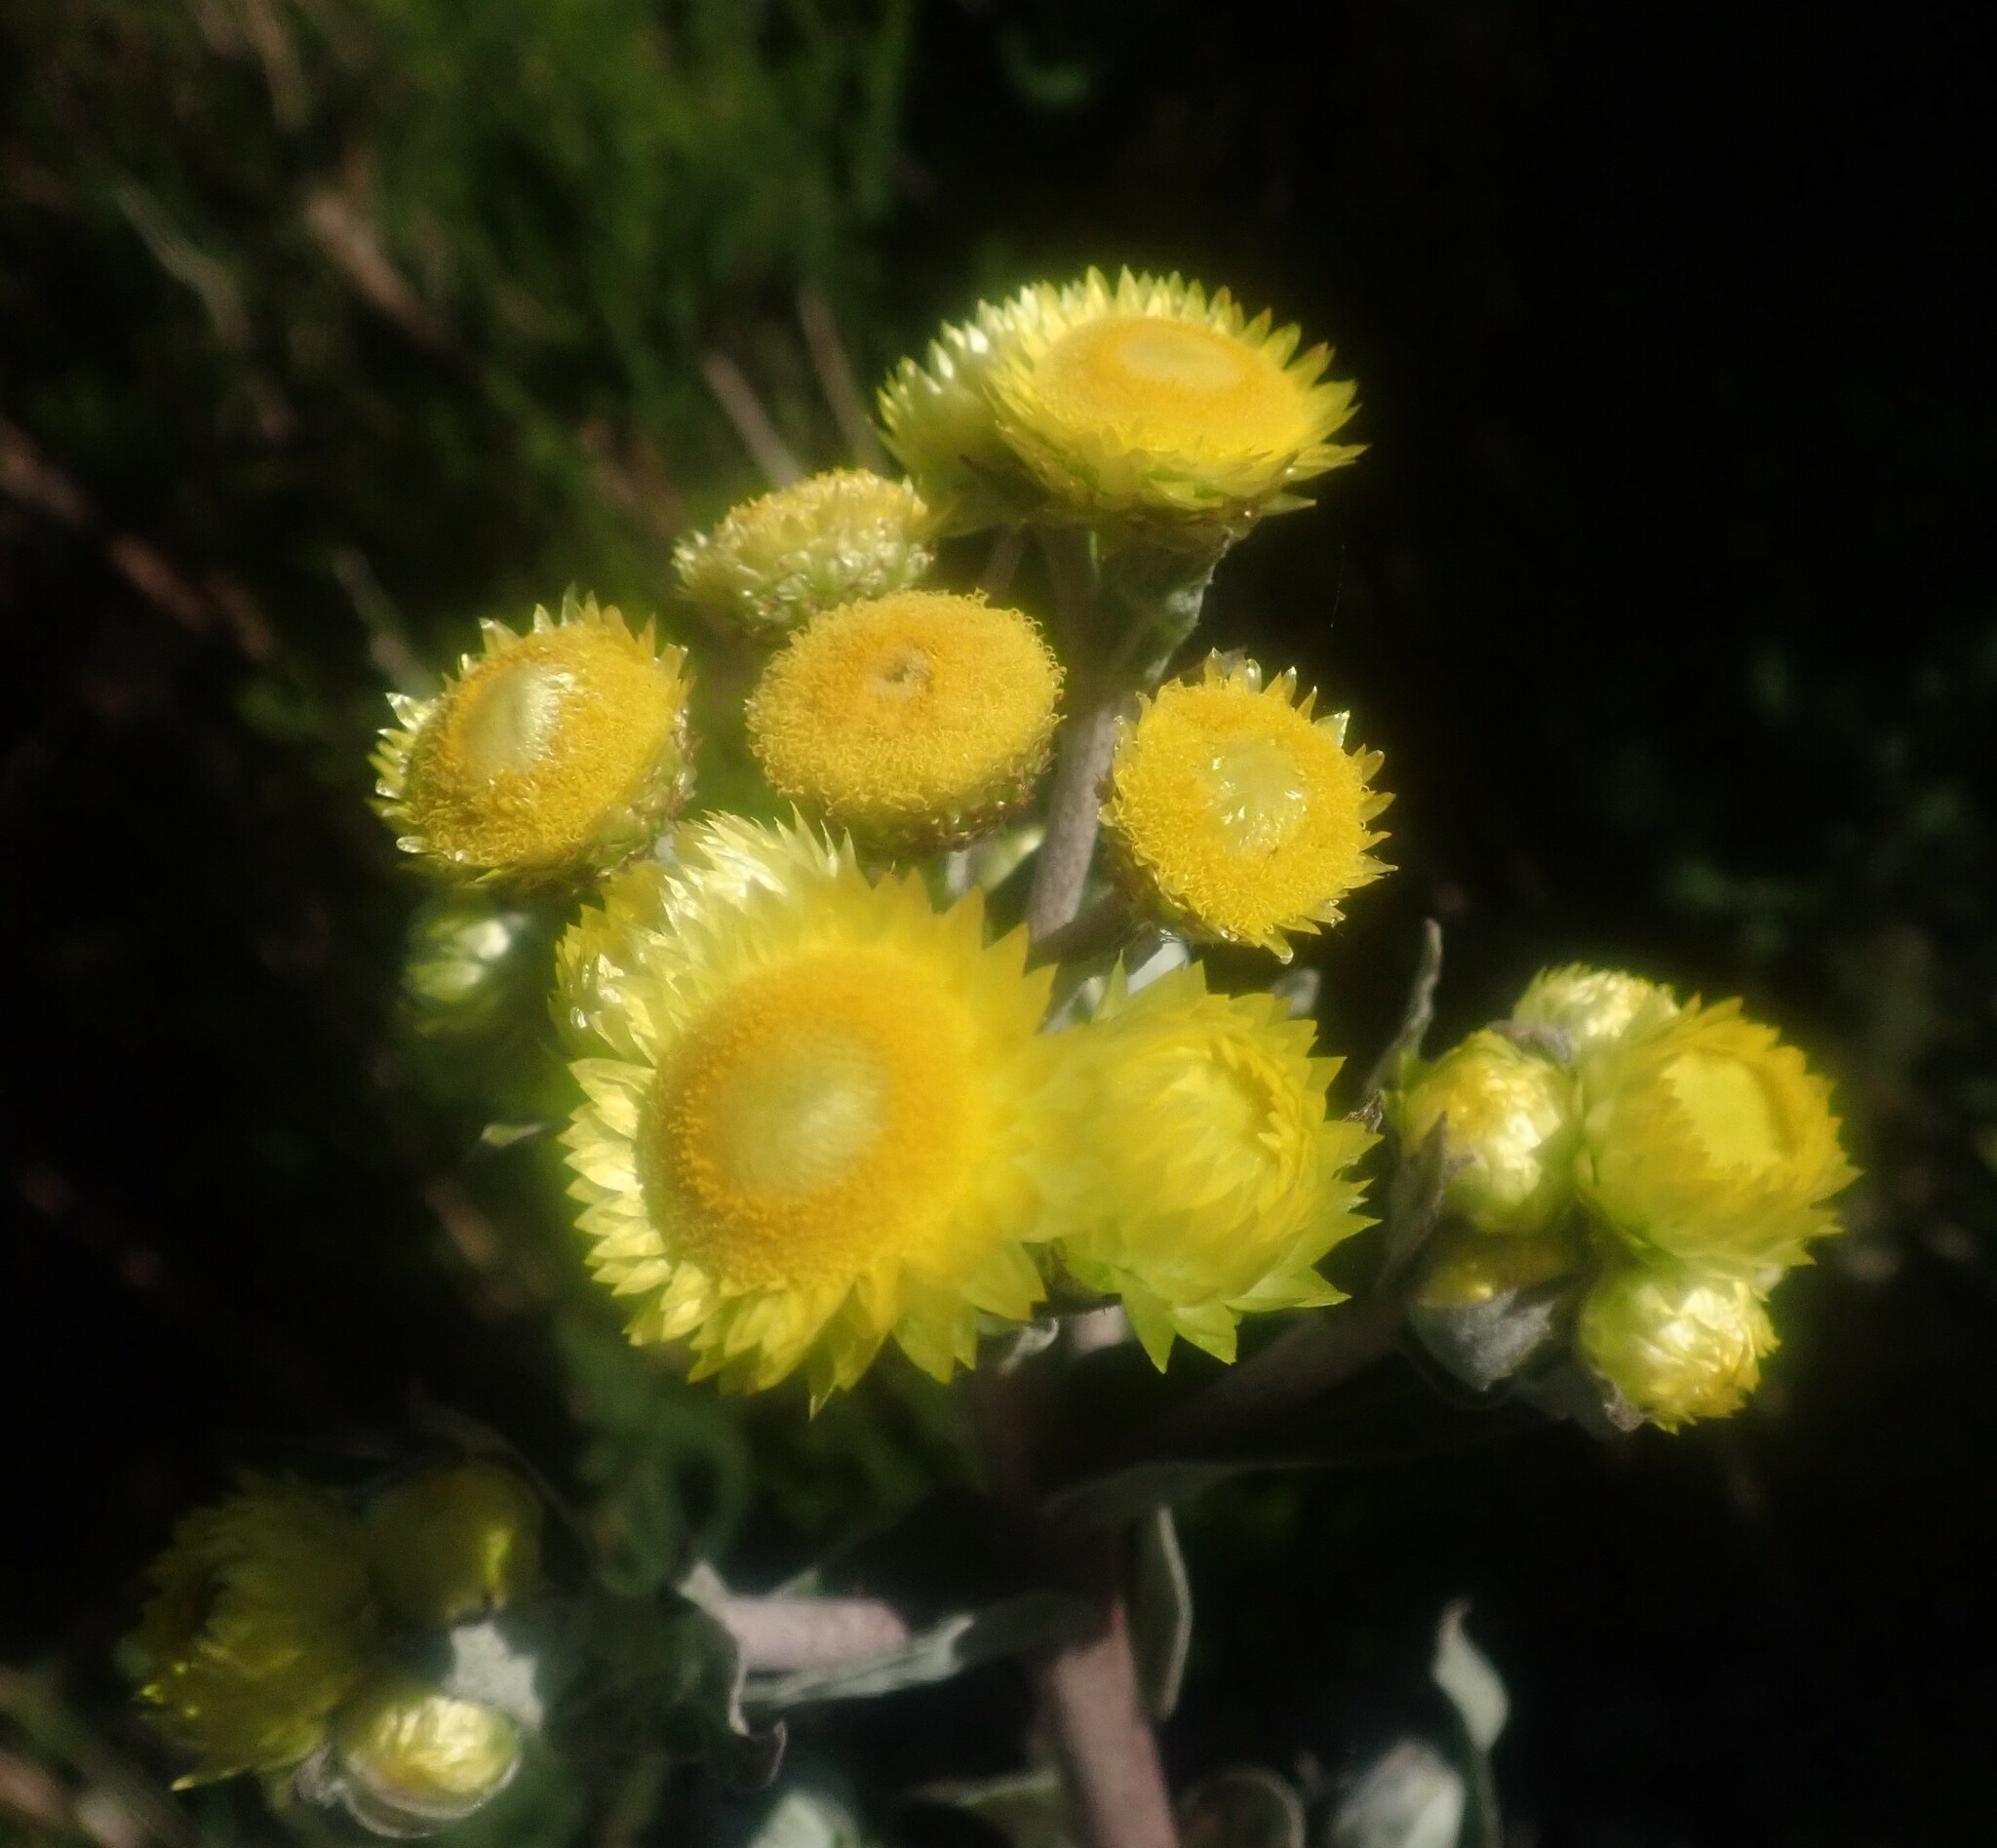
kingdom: Plantae
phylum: Tracheophyta
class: Magnoliopsida
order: Asterales
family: Asteraceae
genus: Helichrysum
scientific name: Helichrysum foetidum
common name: Stinking everlasting
